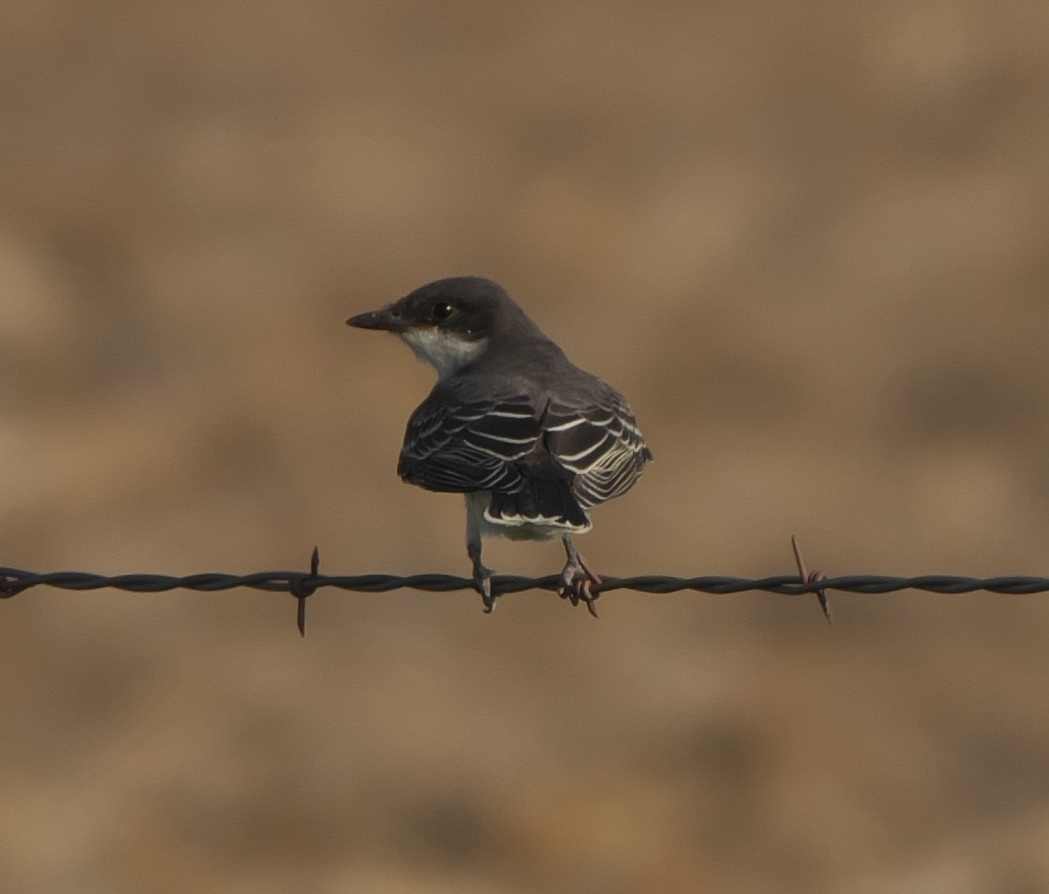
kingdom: Animalia
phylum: Chordata
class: Aves
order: Passeriformes
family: Tyrannidae
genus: Tyrannus
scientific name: Tyrannus tyrannus
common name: Eastern kingbird
